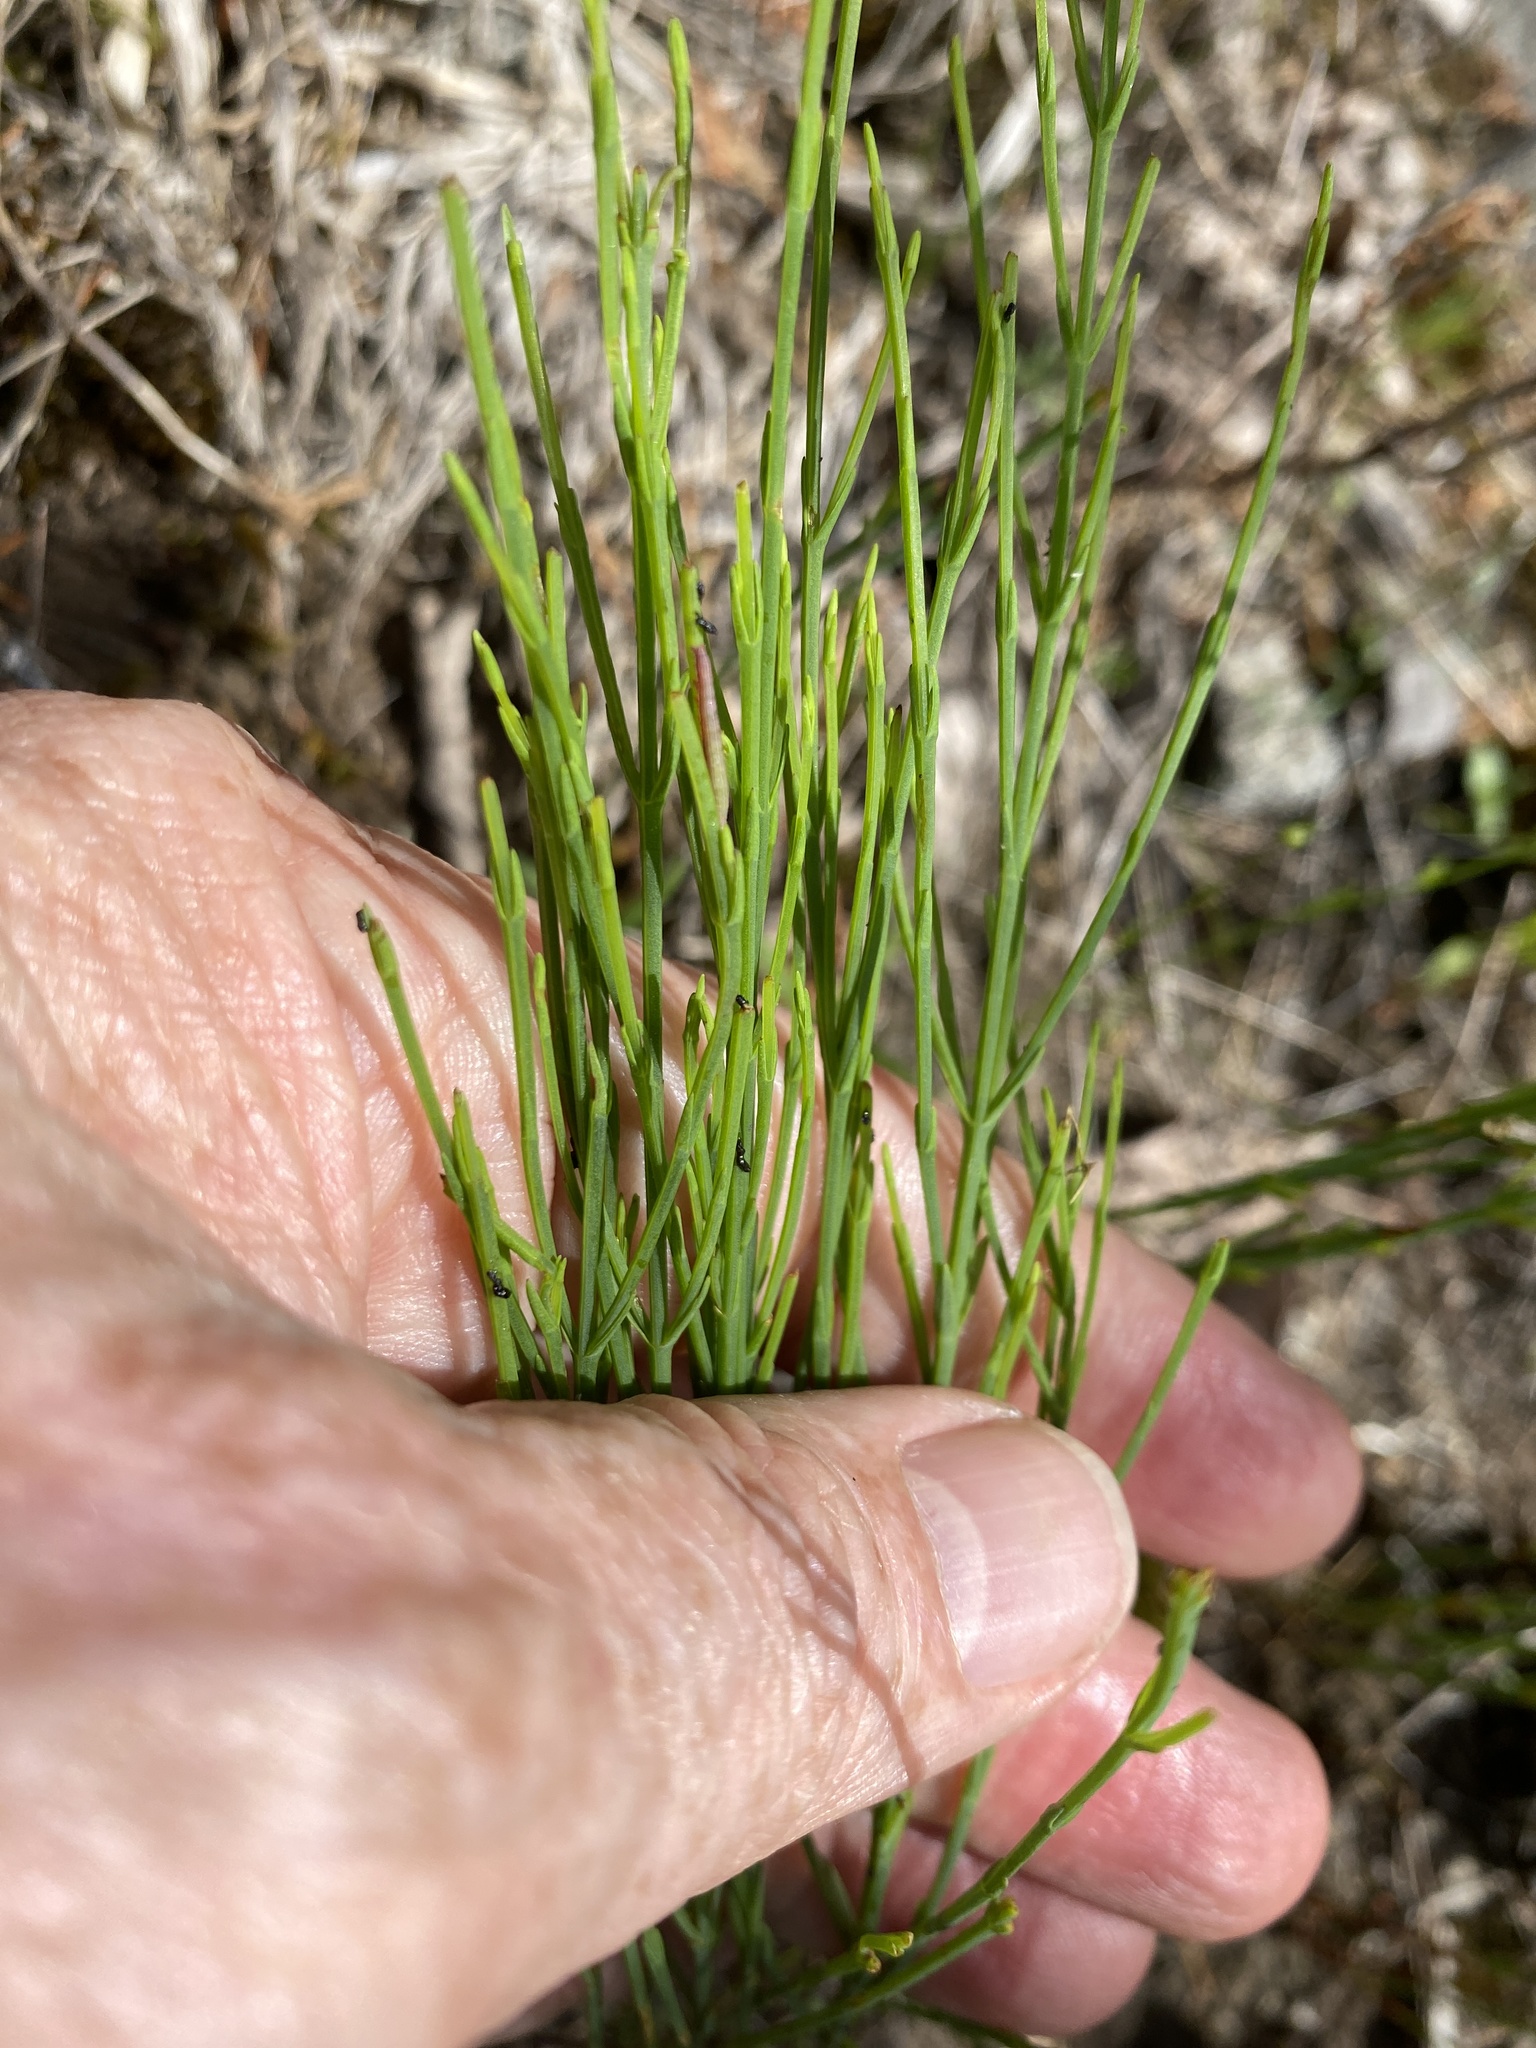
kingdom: Plantae
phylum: Tracheophyta
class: Magnoliopsida
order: Malpighiales
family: Hypericaceae
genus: Hypericum
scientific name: Hypericum gentianoides
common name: Gentian-leaved st. john's-wort
